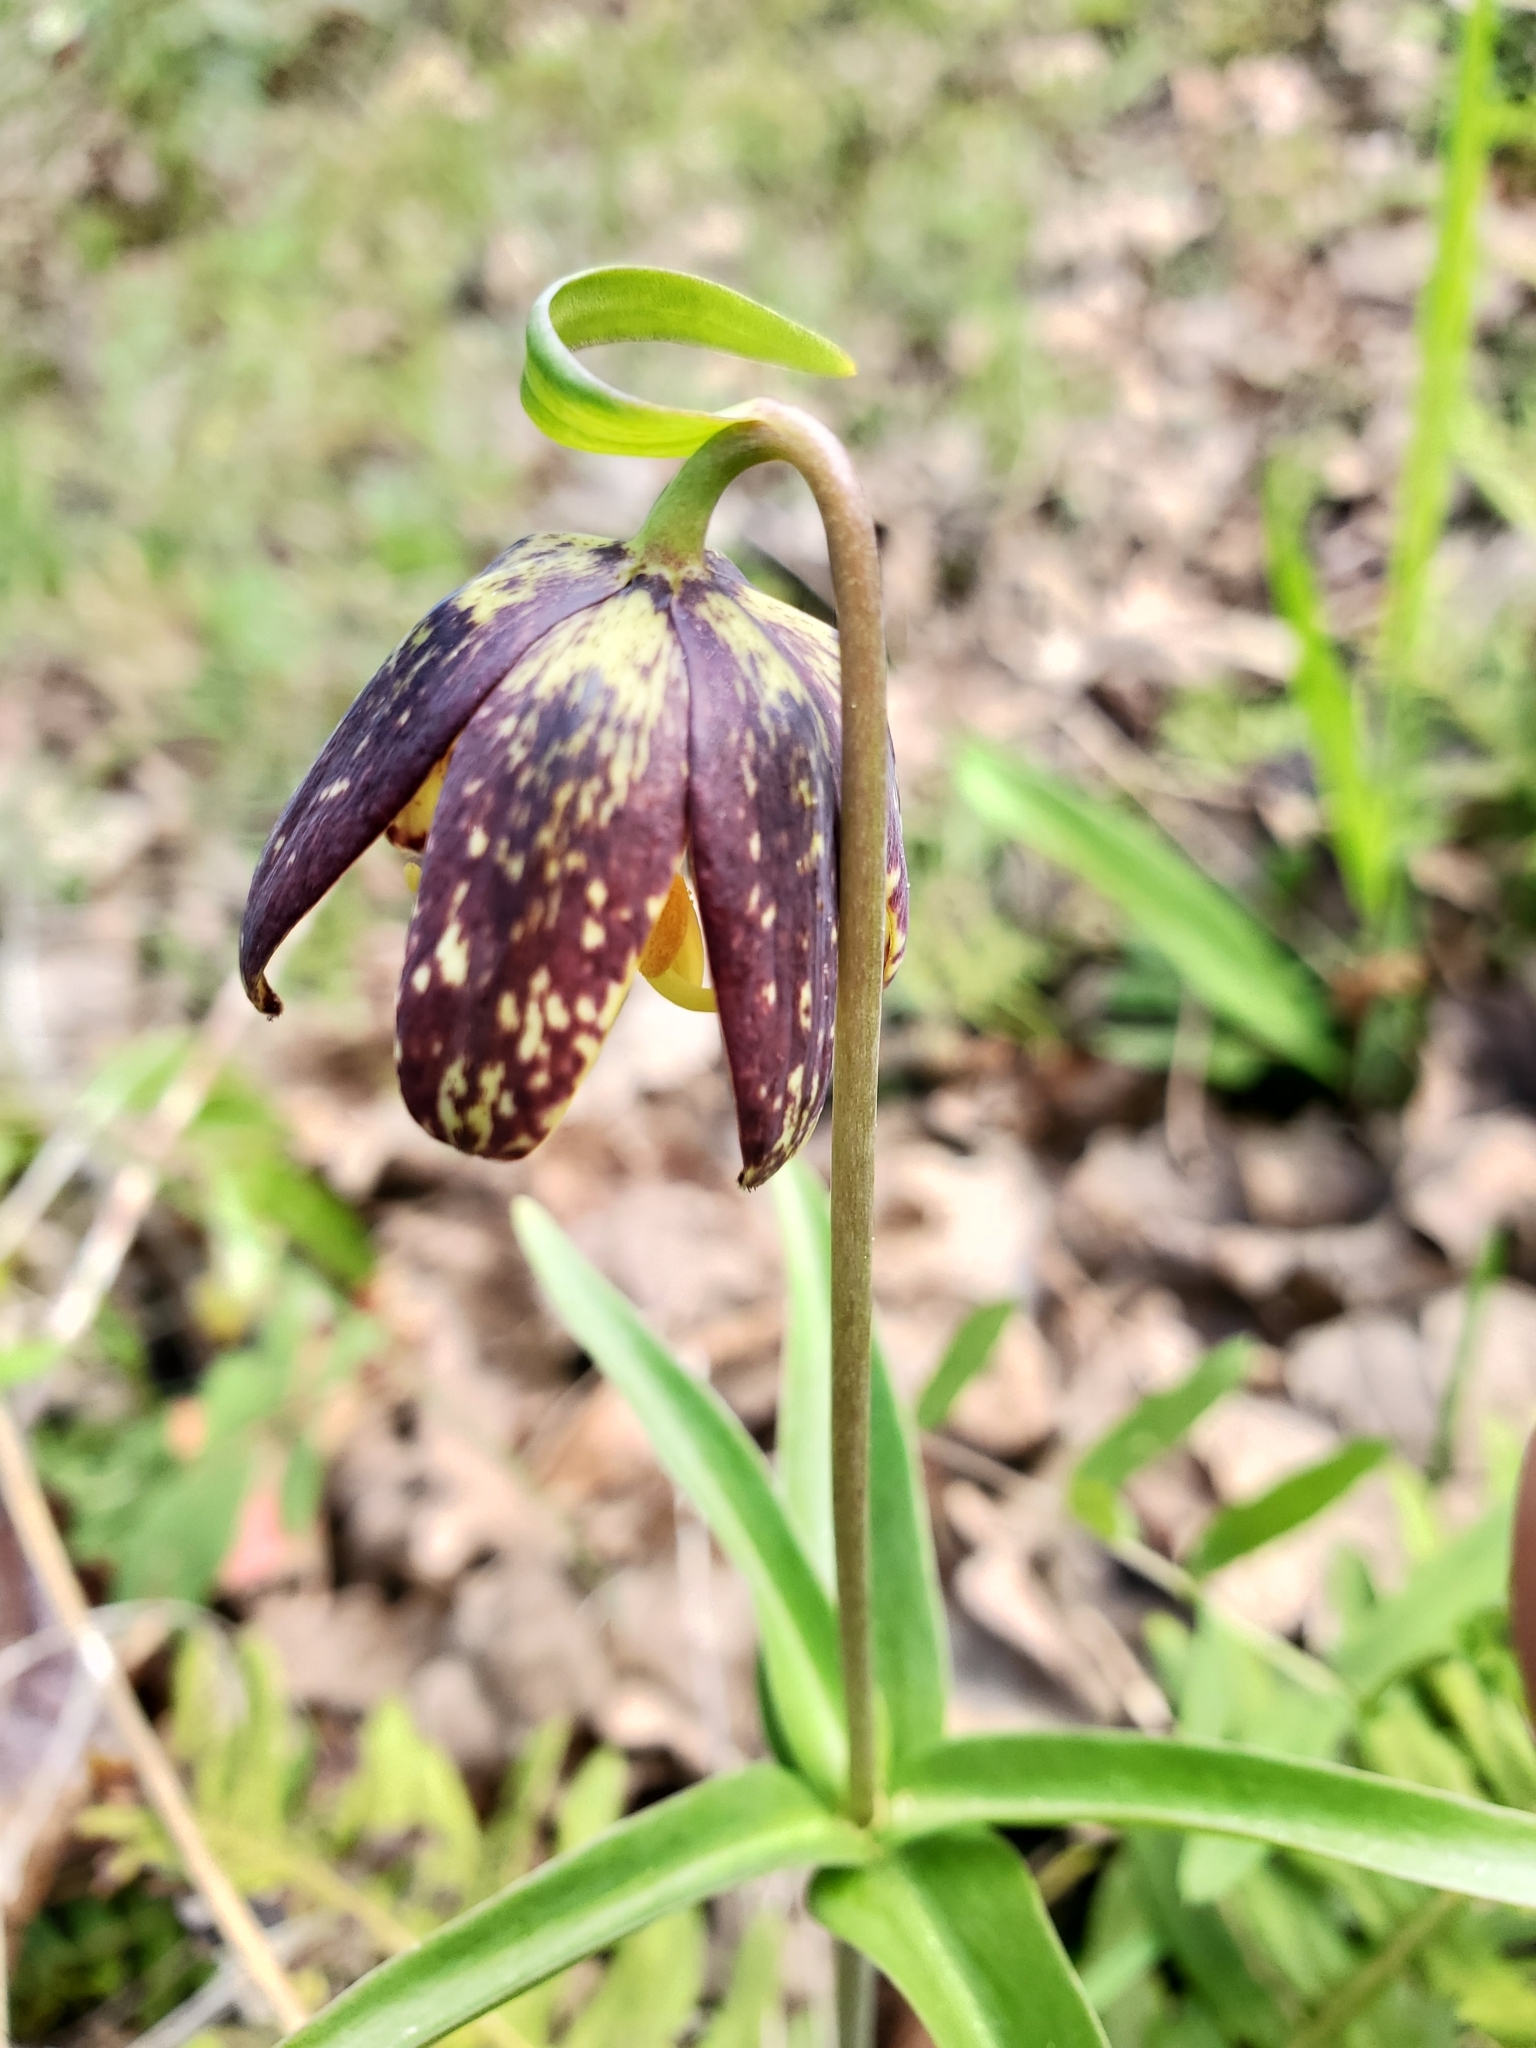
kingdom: Plantae
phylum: Tracheophyta
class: Liliopsida
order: Liliales
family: Liliaceae
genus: Fritillaria
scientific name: Fritillaria affinis
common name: Ojai fritillary
